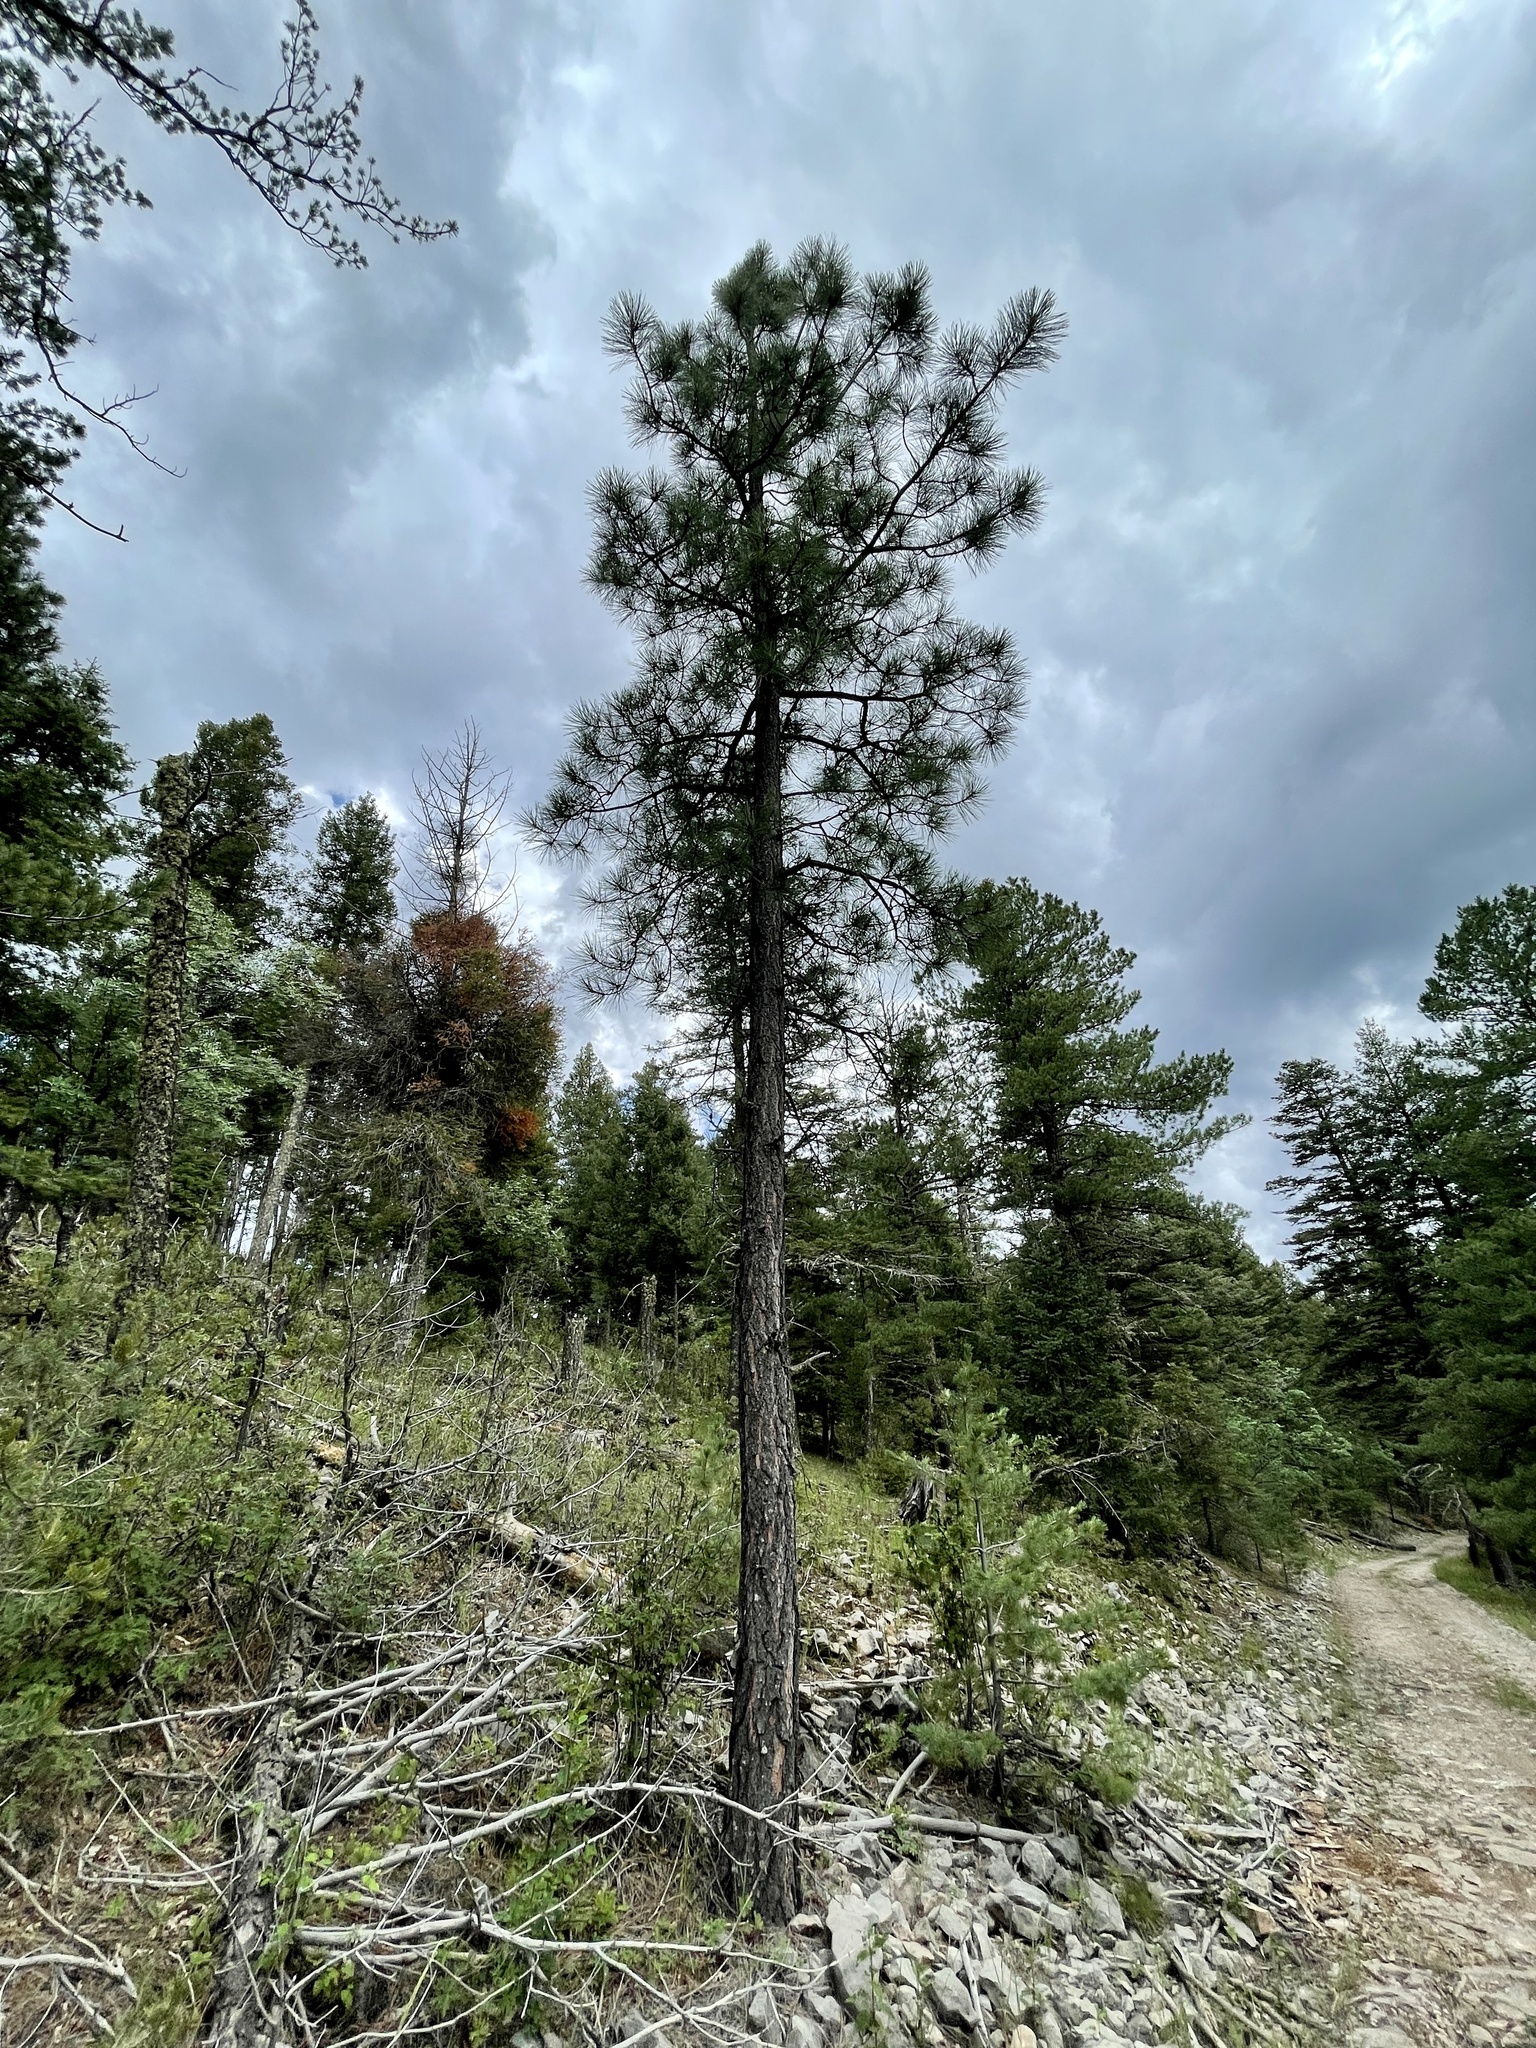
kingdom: Plantae
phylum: Tracheophyta
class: Pinopsida
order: Pinales
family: Pinaceae
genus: Pinus
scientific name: Pinus ponderosa
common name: Western yellow-pine
